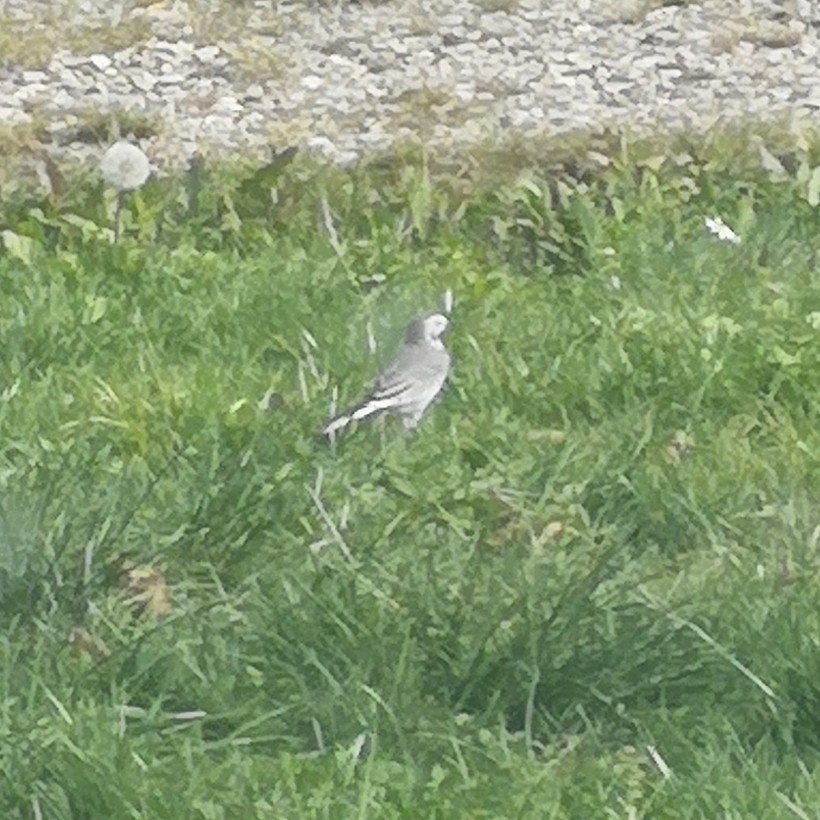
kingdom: Animalia
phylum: Chordata
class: Aves
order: Passeriformes
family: Motacillidae
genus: Motacilla
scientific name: Motacilla alba
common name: White wagtail
